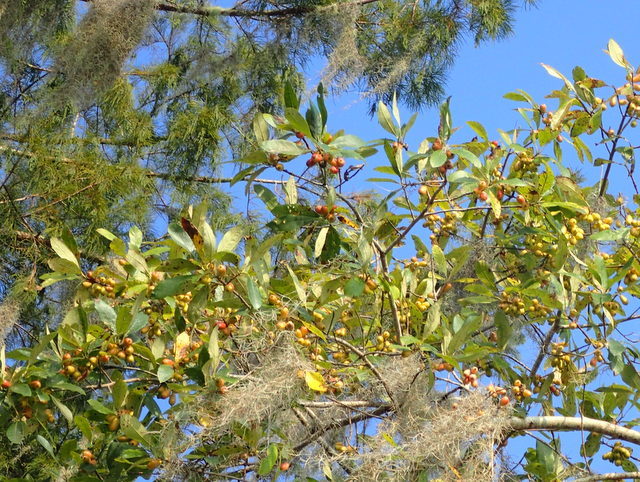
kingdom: Plantae
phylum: Tracheophyta
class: Magnoliopsida
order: Cornales
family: Nyssaceae
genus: Nyssa
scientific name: Nyssa ogeche
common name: Ogeechee tupelo
